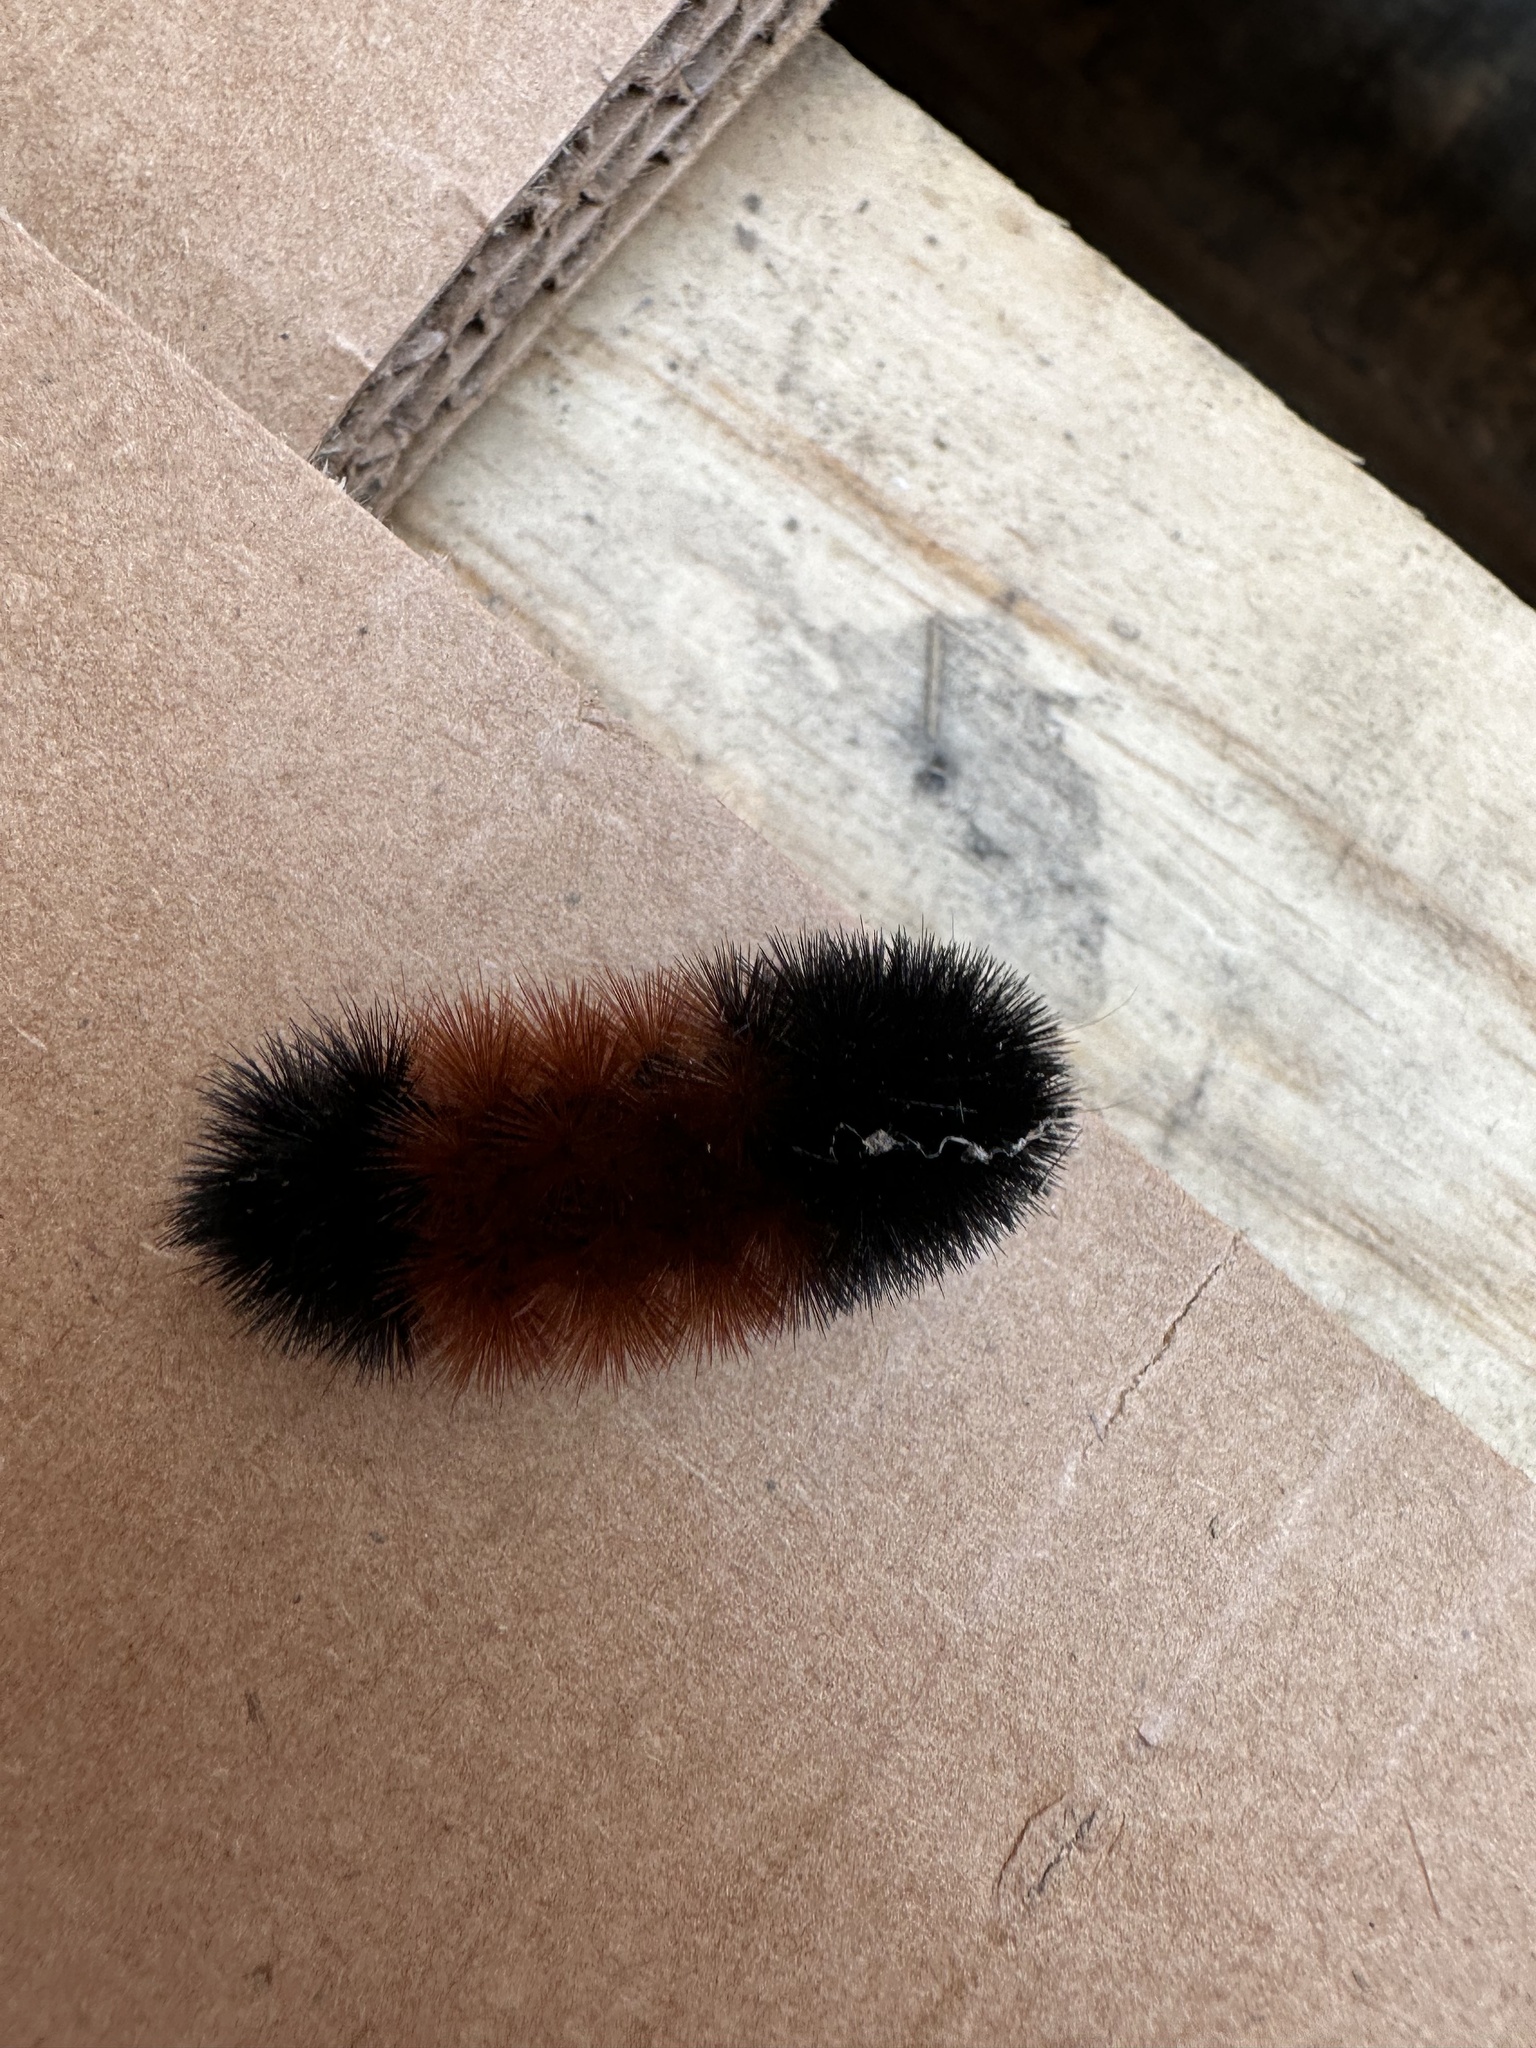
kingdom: Animalia
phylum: Arthropoda
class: Insecta
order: Lepidoptera
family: Erebidae
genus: Pyrrharctia
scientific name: Pyrrharctia isabella
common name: Isabella tiger moth
